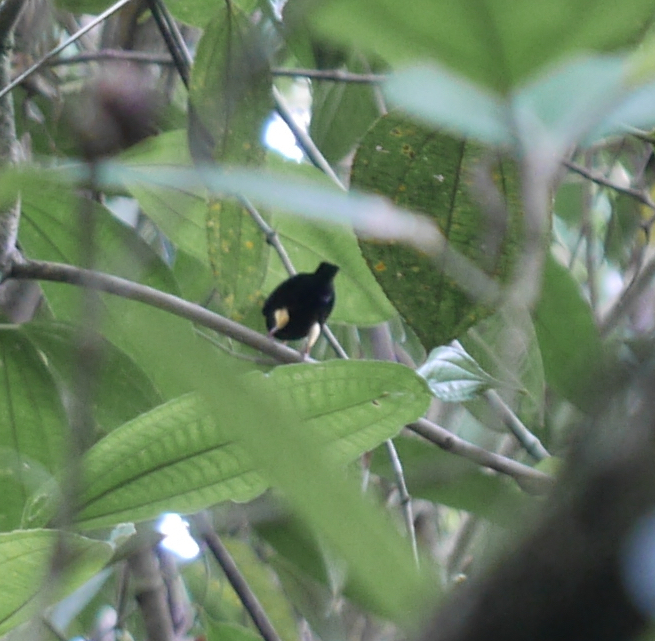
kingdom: Animalia
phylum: Chordata
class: Aves
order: Passeriformes
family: Pipridae
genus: Pipra
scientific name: Pipra mentalis
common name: Red-capped manakin
